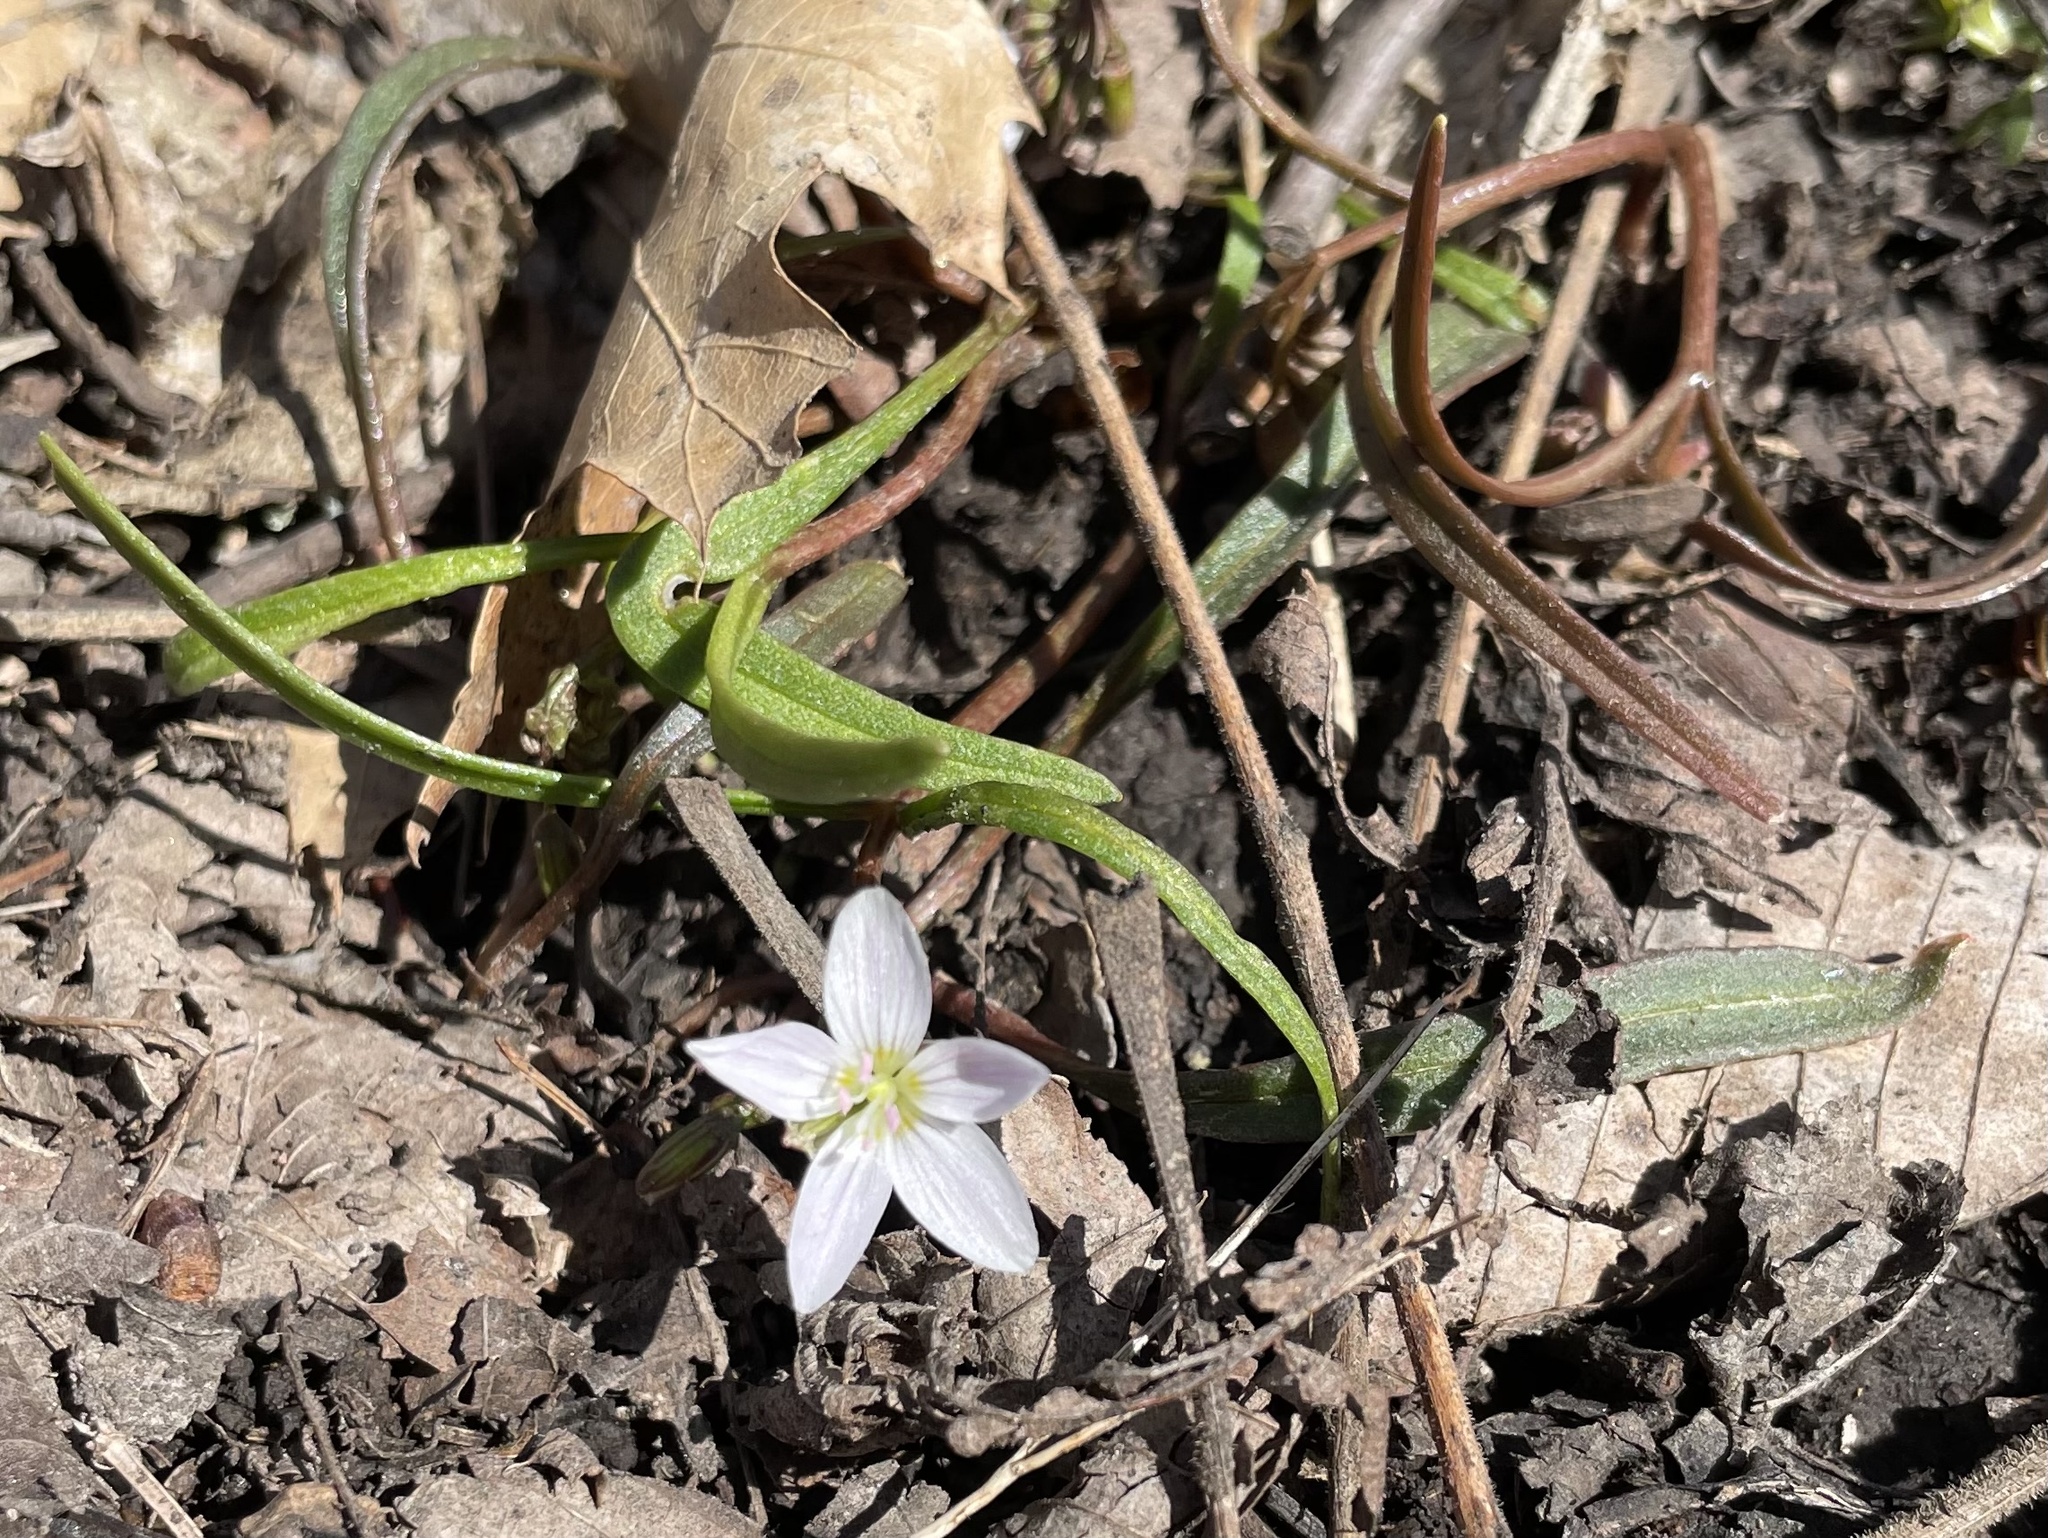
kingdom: Plantae
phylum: Tracheophyta
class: Magnoliopsida
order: Caryophyllales
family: Montiaceae
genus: Claytonia
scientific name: Claytonia virginica
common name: Virginia springbeauty
